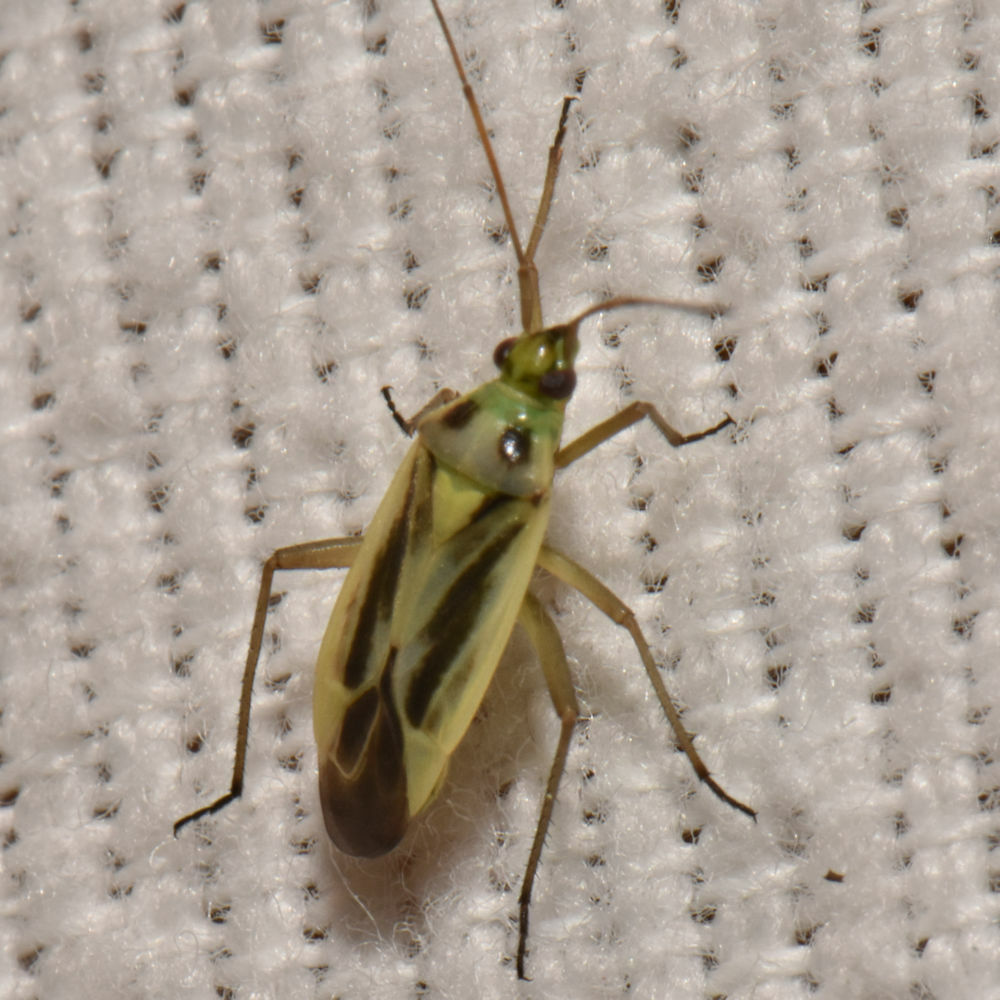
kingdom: Animalia
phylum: Arthropoda
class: Insecta
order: Hemiptera
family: Miridae
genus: Stenotus
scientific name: Stenotus binotatus
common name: Plant bug
